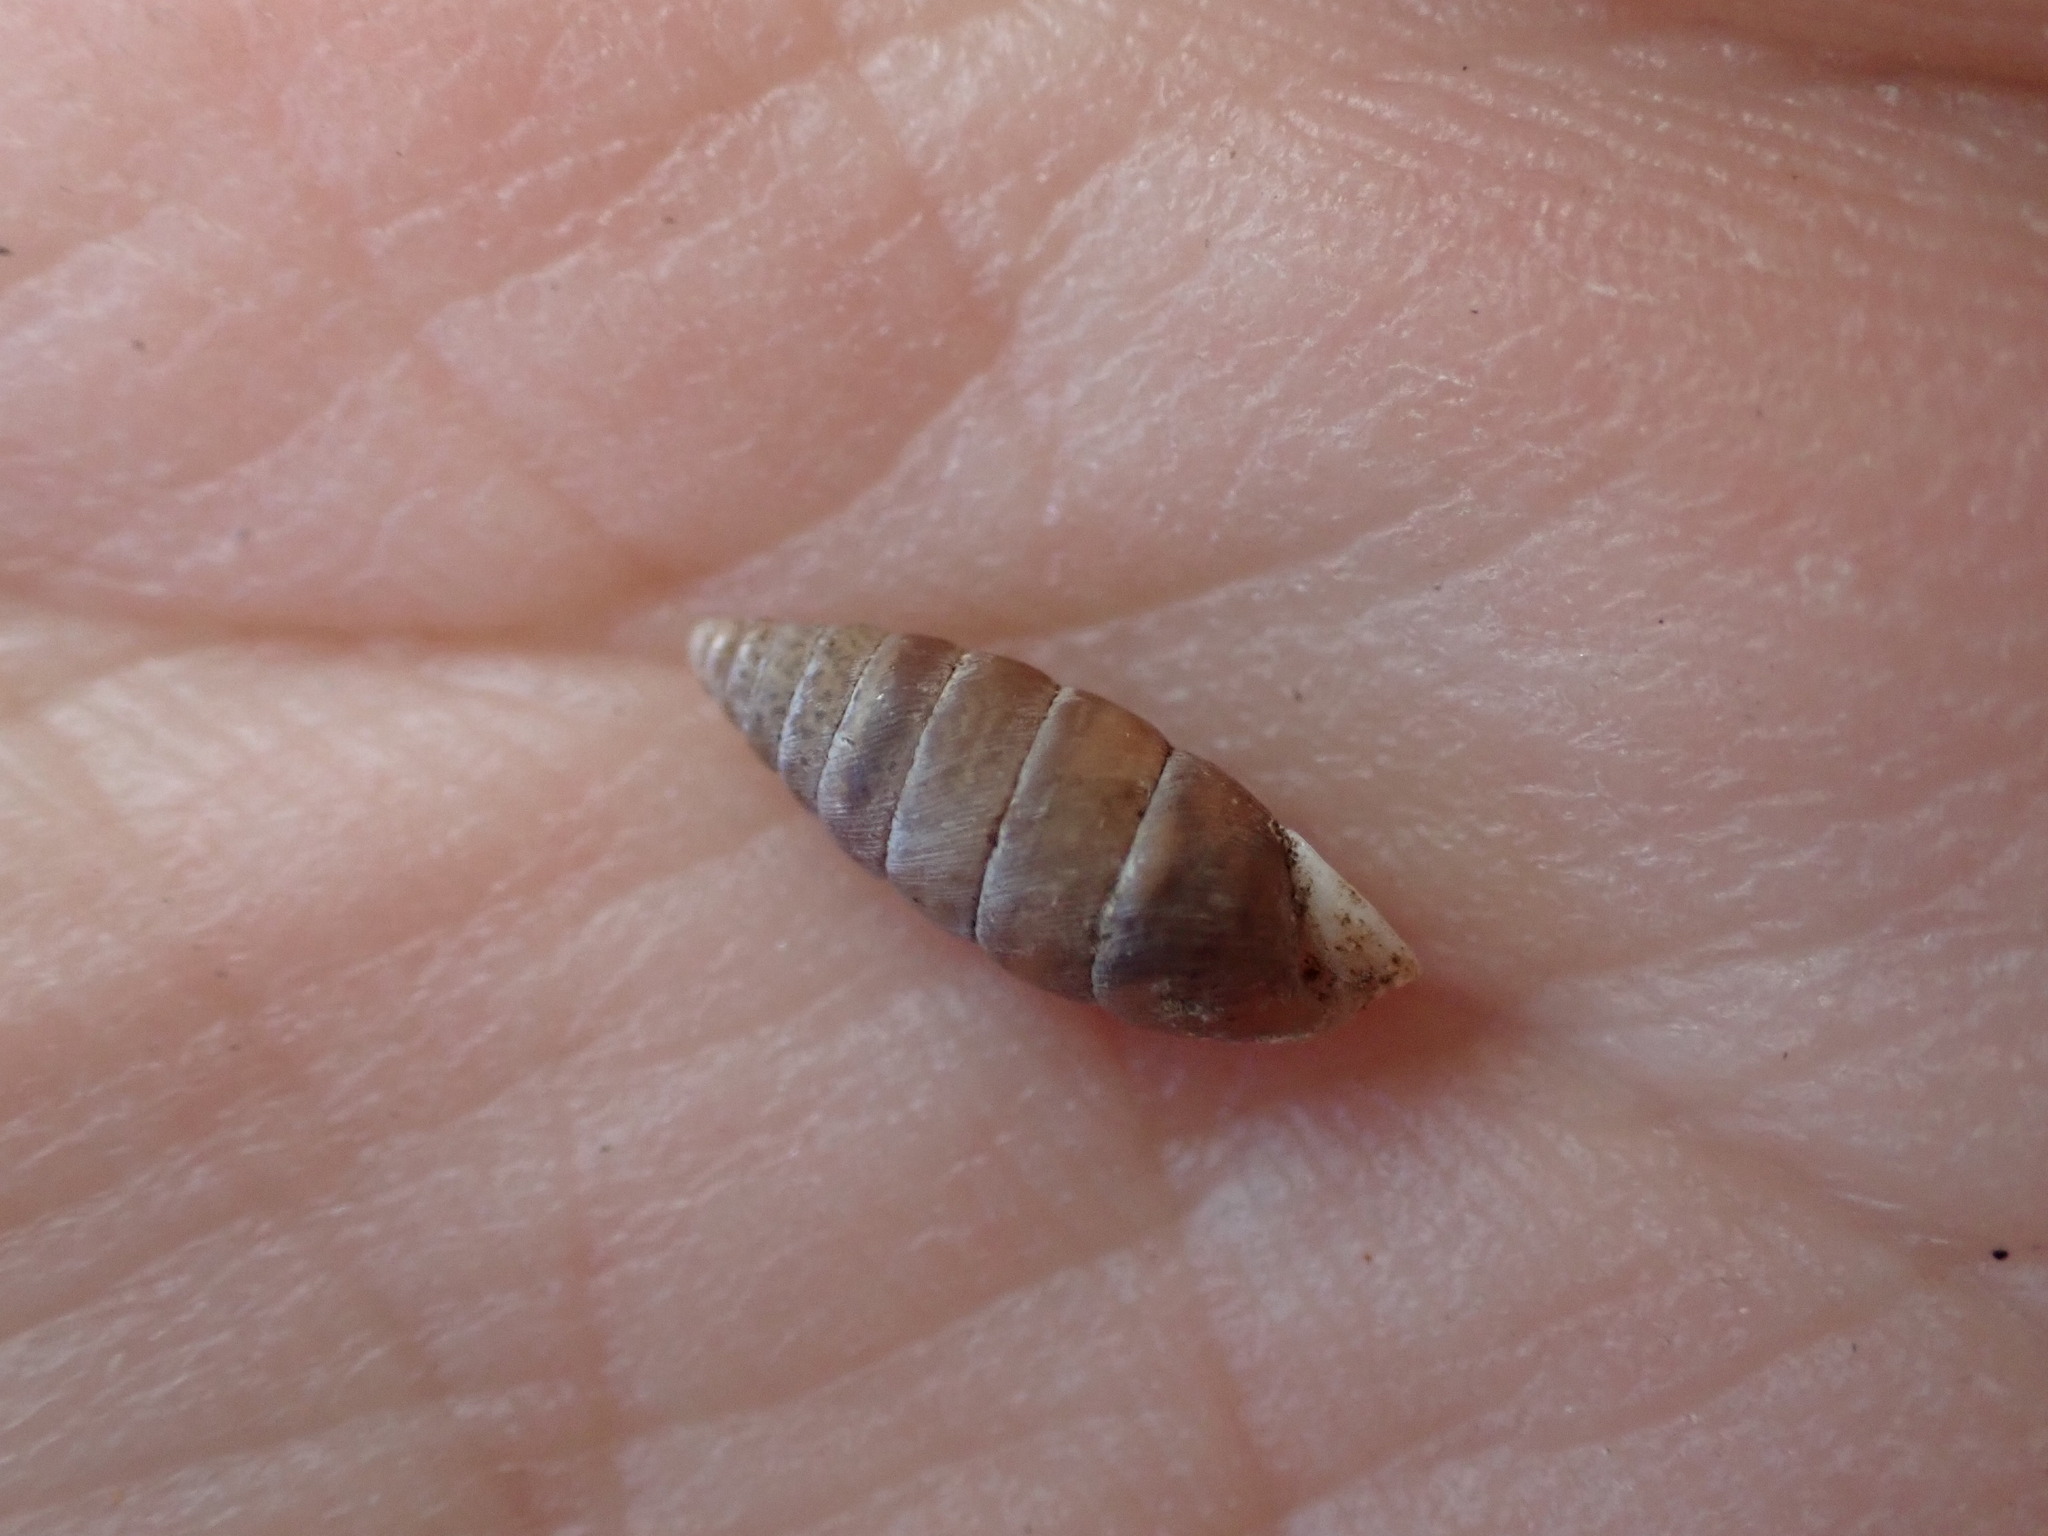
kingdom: Animalia
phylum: Mollusca
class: Gastropoda
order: Stylommatophora
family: Chondrinidae
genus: Abida
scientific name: Abida polyodon
